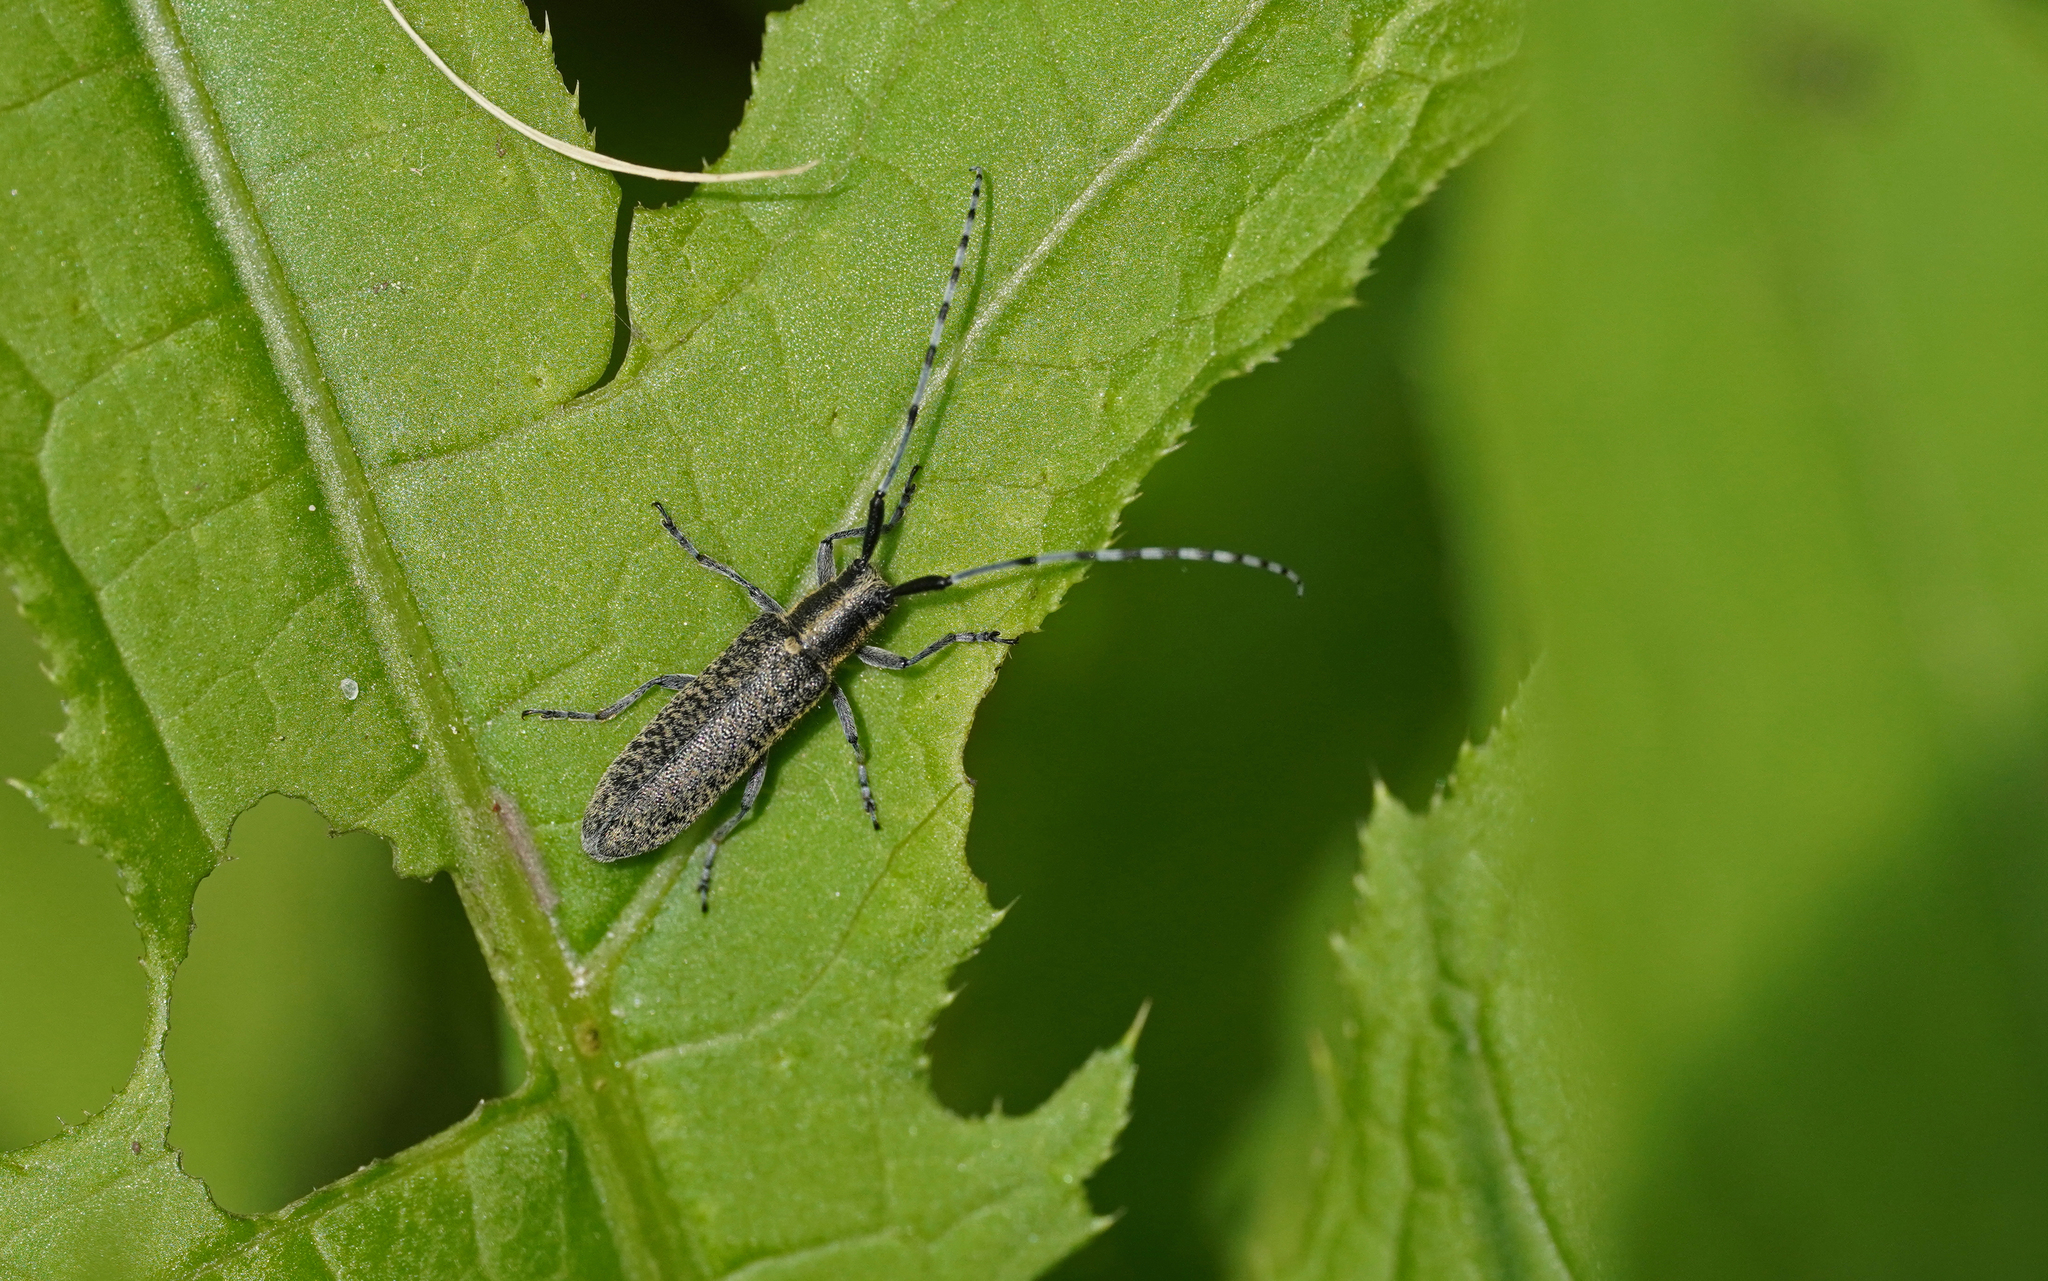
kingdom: Animalia
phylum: Arthropoda
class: Insecta
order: Coleoptera
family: Cerambycidae
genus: Agapanthia
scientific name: Agapanthia villosoviridescens
